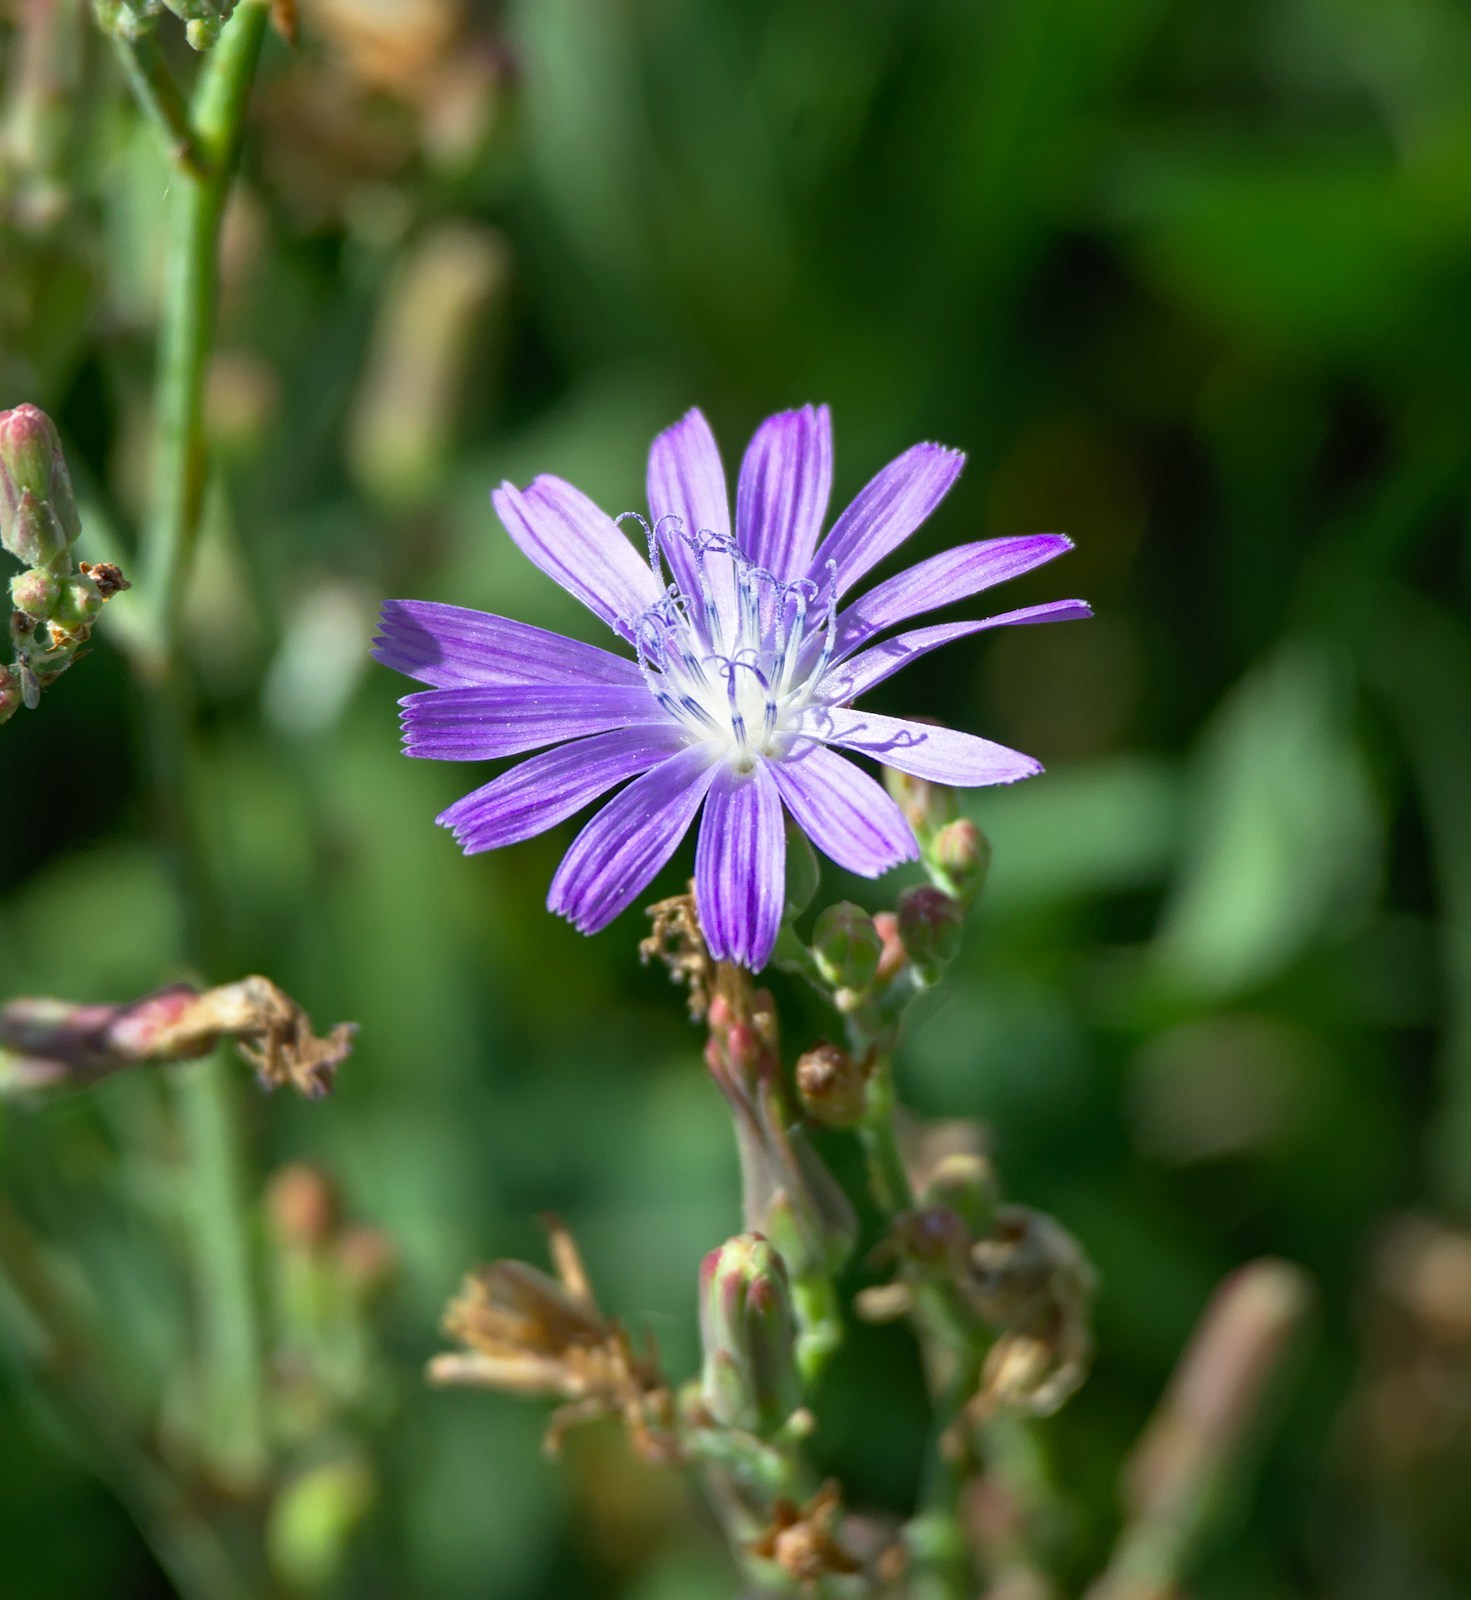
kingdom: Plantae
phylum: Tracheophyta
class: Magnoliopsida
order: Asterales
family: Asteraceae
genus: Lactuca
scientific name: Lactuca tatarica
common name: Blue lettuce
